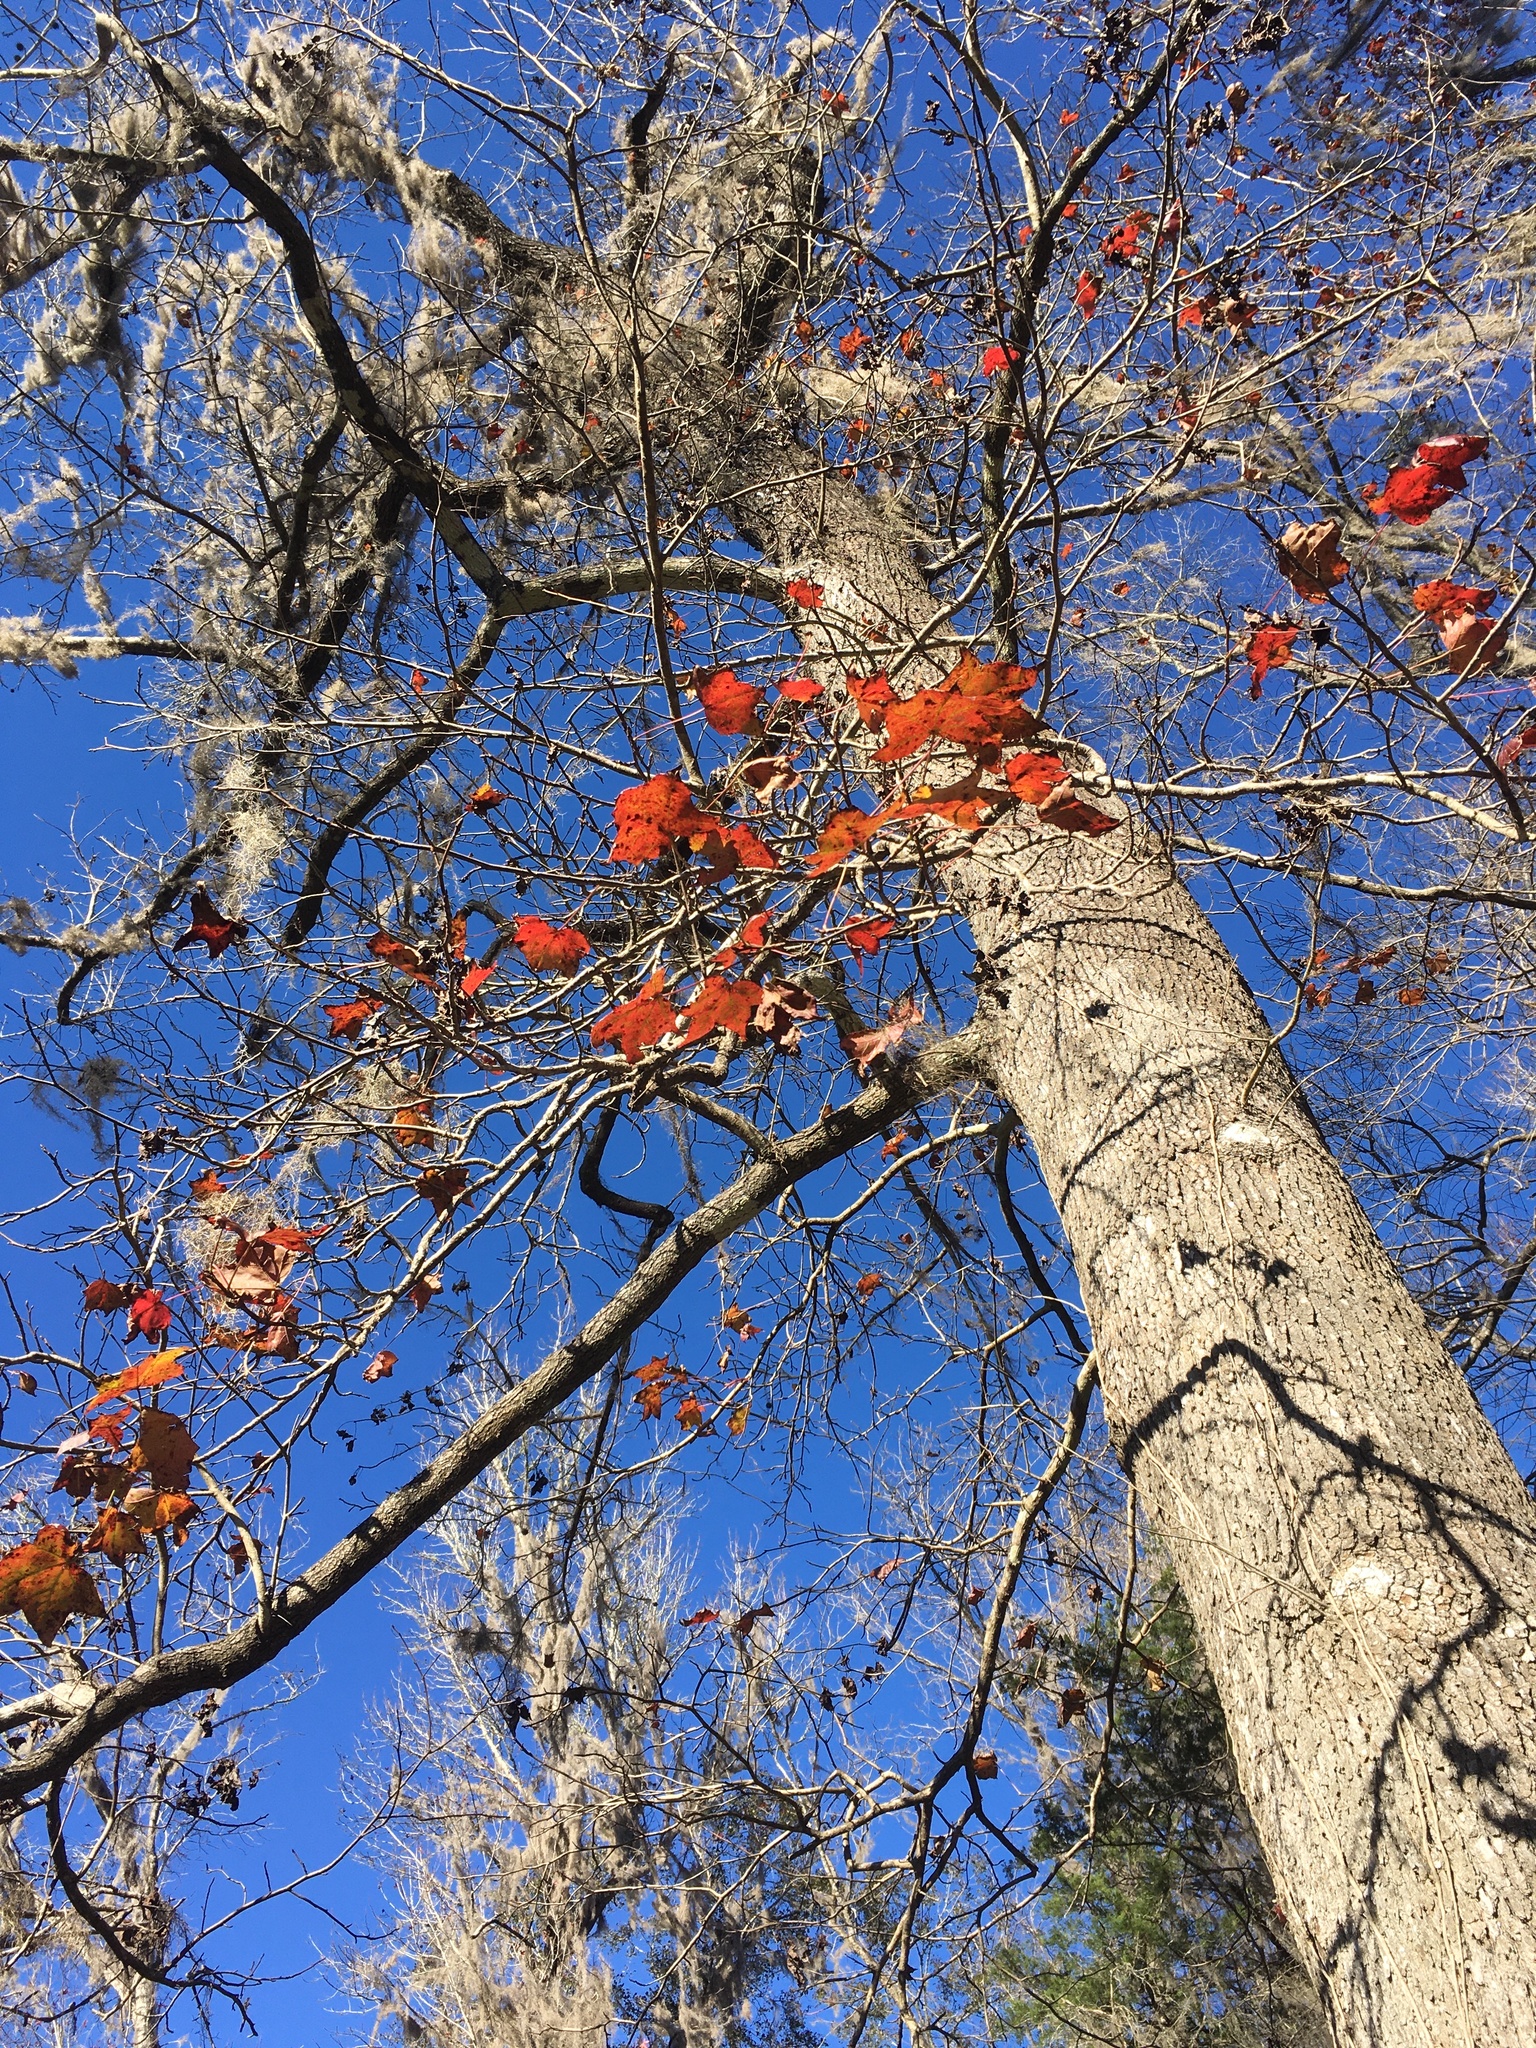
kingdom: Plantae
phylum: Tracheophyta
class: Magnoliopsida
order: Saxifragales
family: Altingiaceae
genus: Liquidambar
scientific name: Liquidambar styraciflua
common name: Sweet gum
